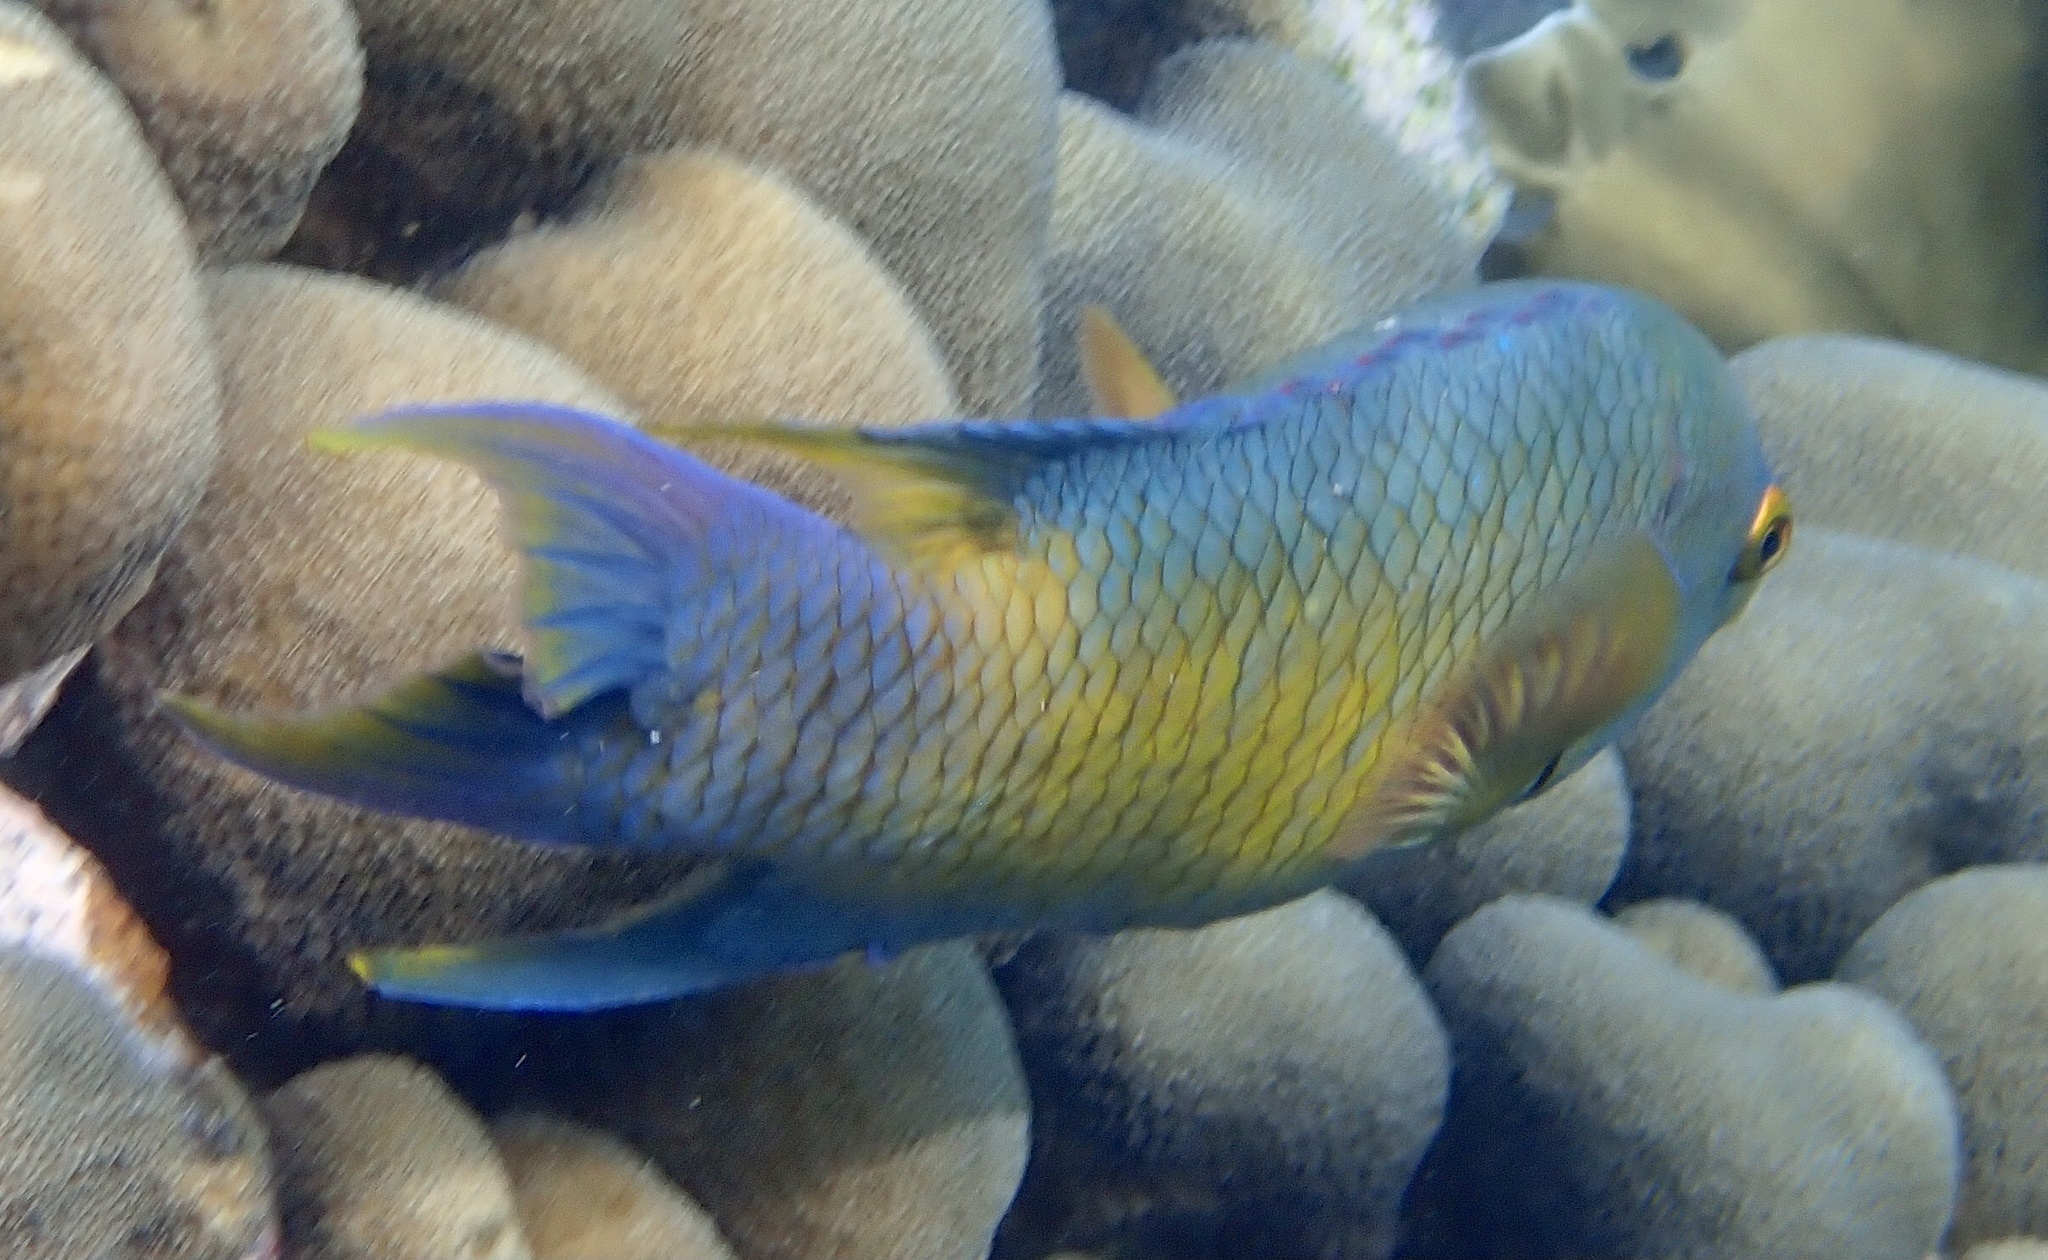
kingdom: Animalia
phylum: Chordata
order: Perciformes
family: Labridae
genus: Bodianus
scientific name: Bodianus rufus
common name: Spanish hogfish
